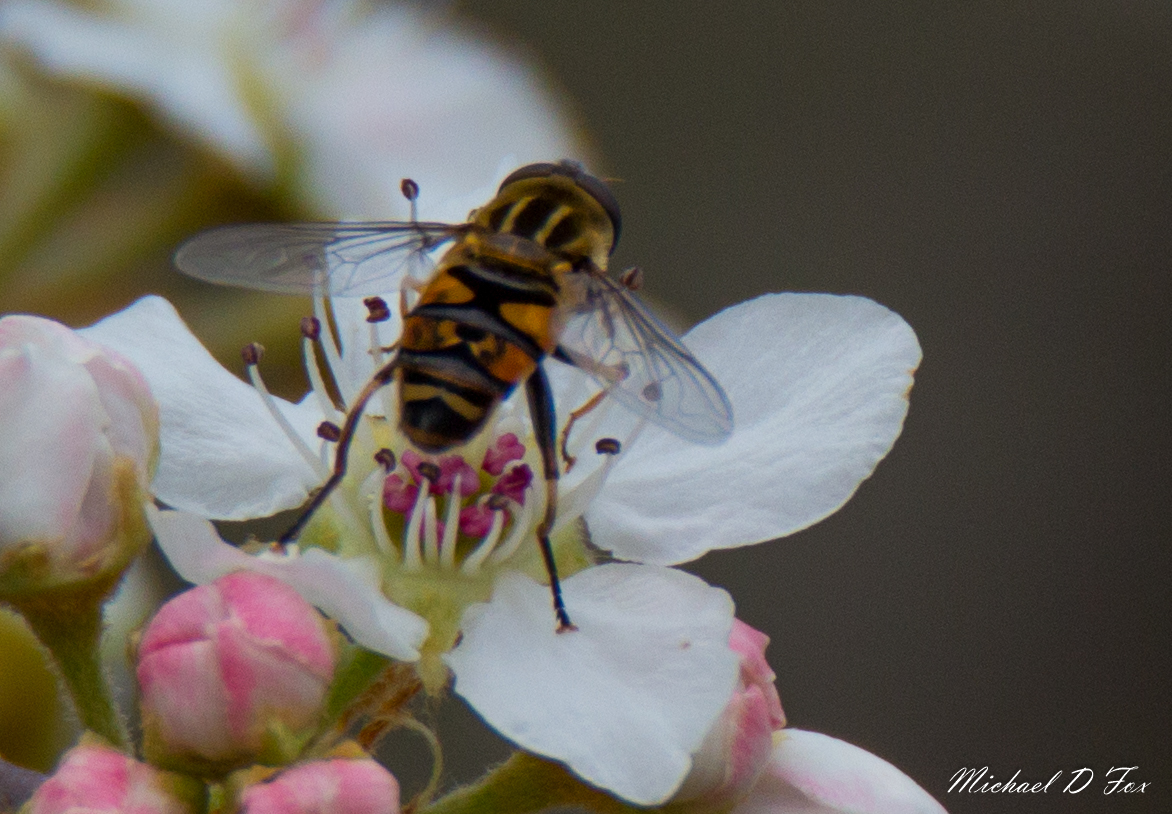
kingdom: Animalia
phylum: Arthropoda
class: Insecta
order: Diptera
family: Syrphidae
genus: Helophilus
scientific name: Helophilus fasciatus
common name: Narrow-headed marsh fly
